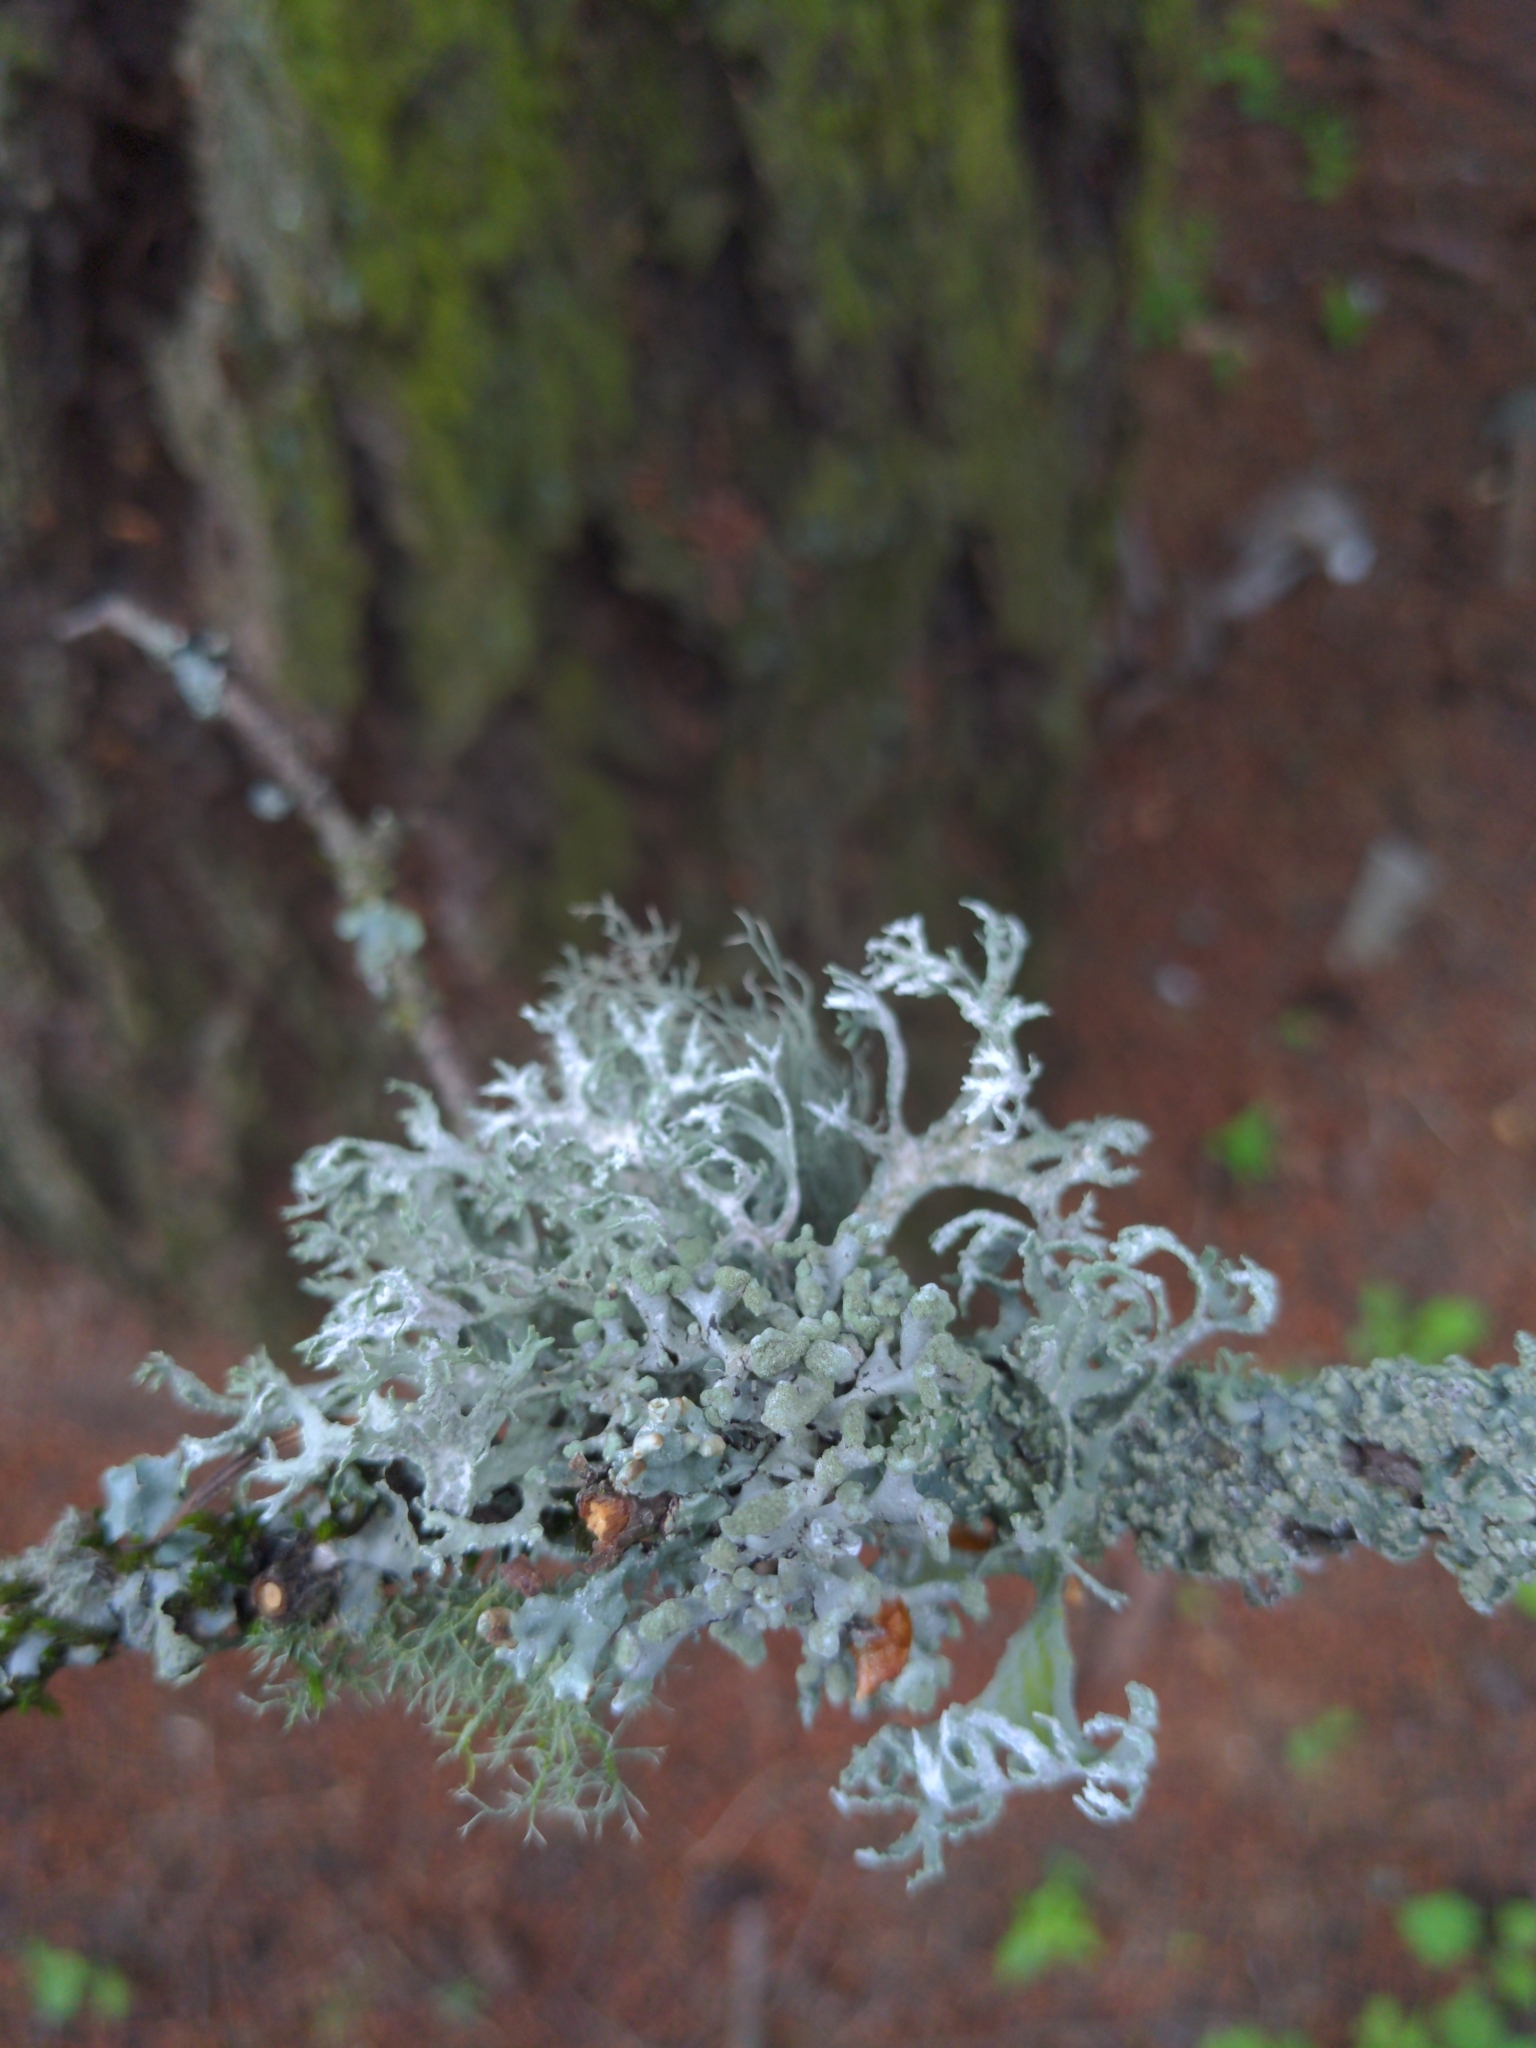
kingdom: Fungi
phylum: Ascomycota
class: Lecanoromycetes
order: Lecanorales
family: Parmeliaceae
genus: Evernia
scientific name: Evernia prunastri
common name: Oak moss
